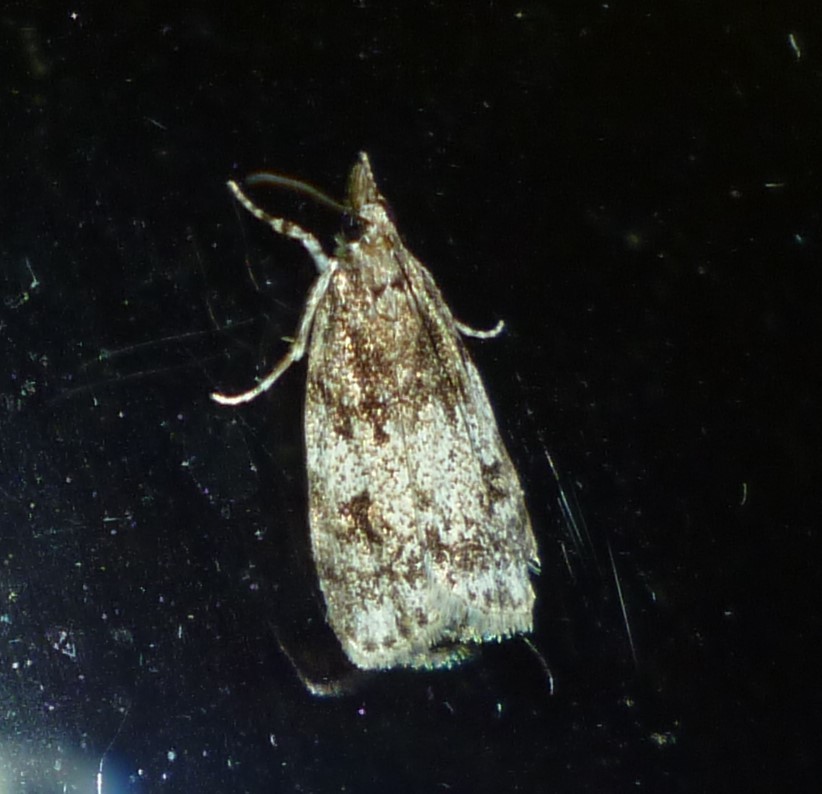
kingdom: Animalia
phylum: Arthropoda
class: Insecta
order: Lepidoptera
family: Crambidae
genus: Scoparia
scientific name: Scoparia cinereomedia
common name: Sooty scoparia moth
